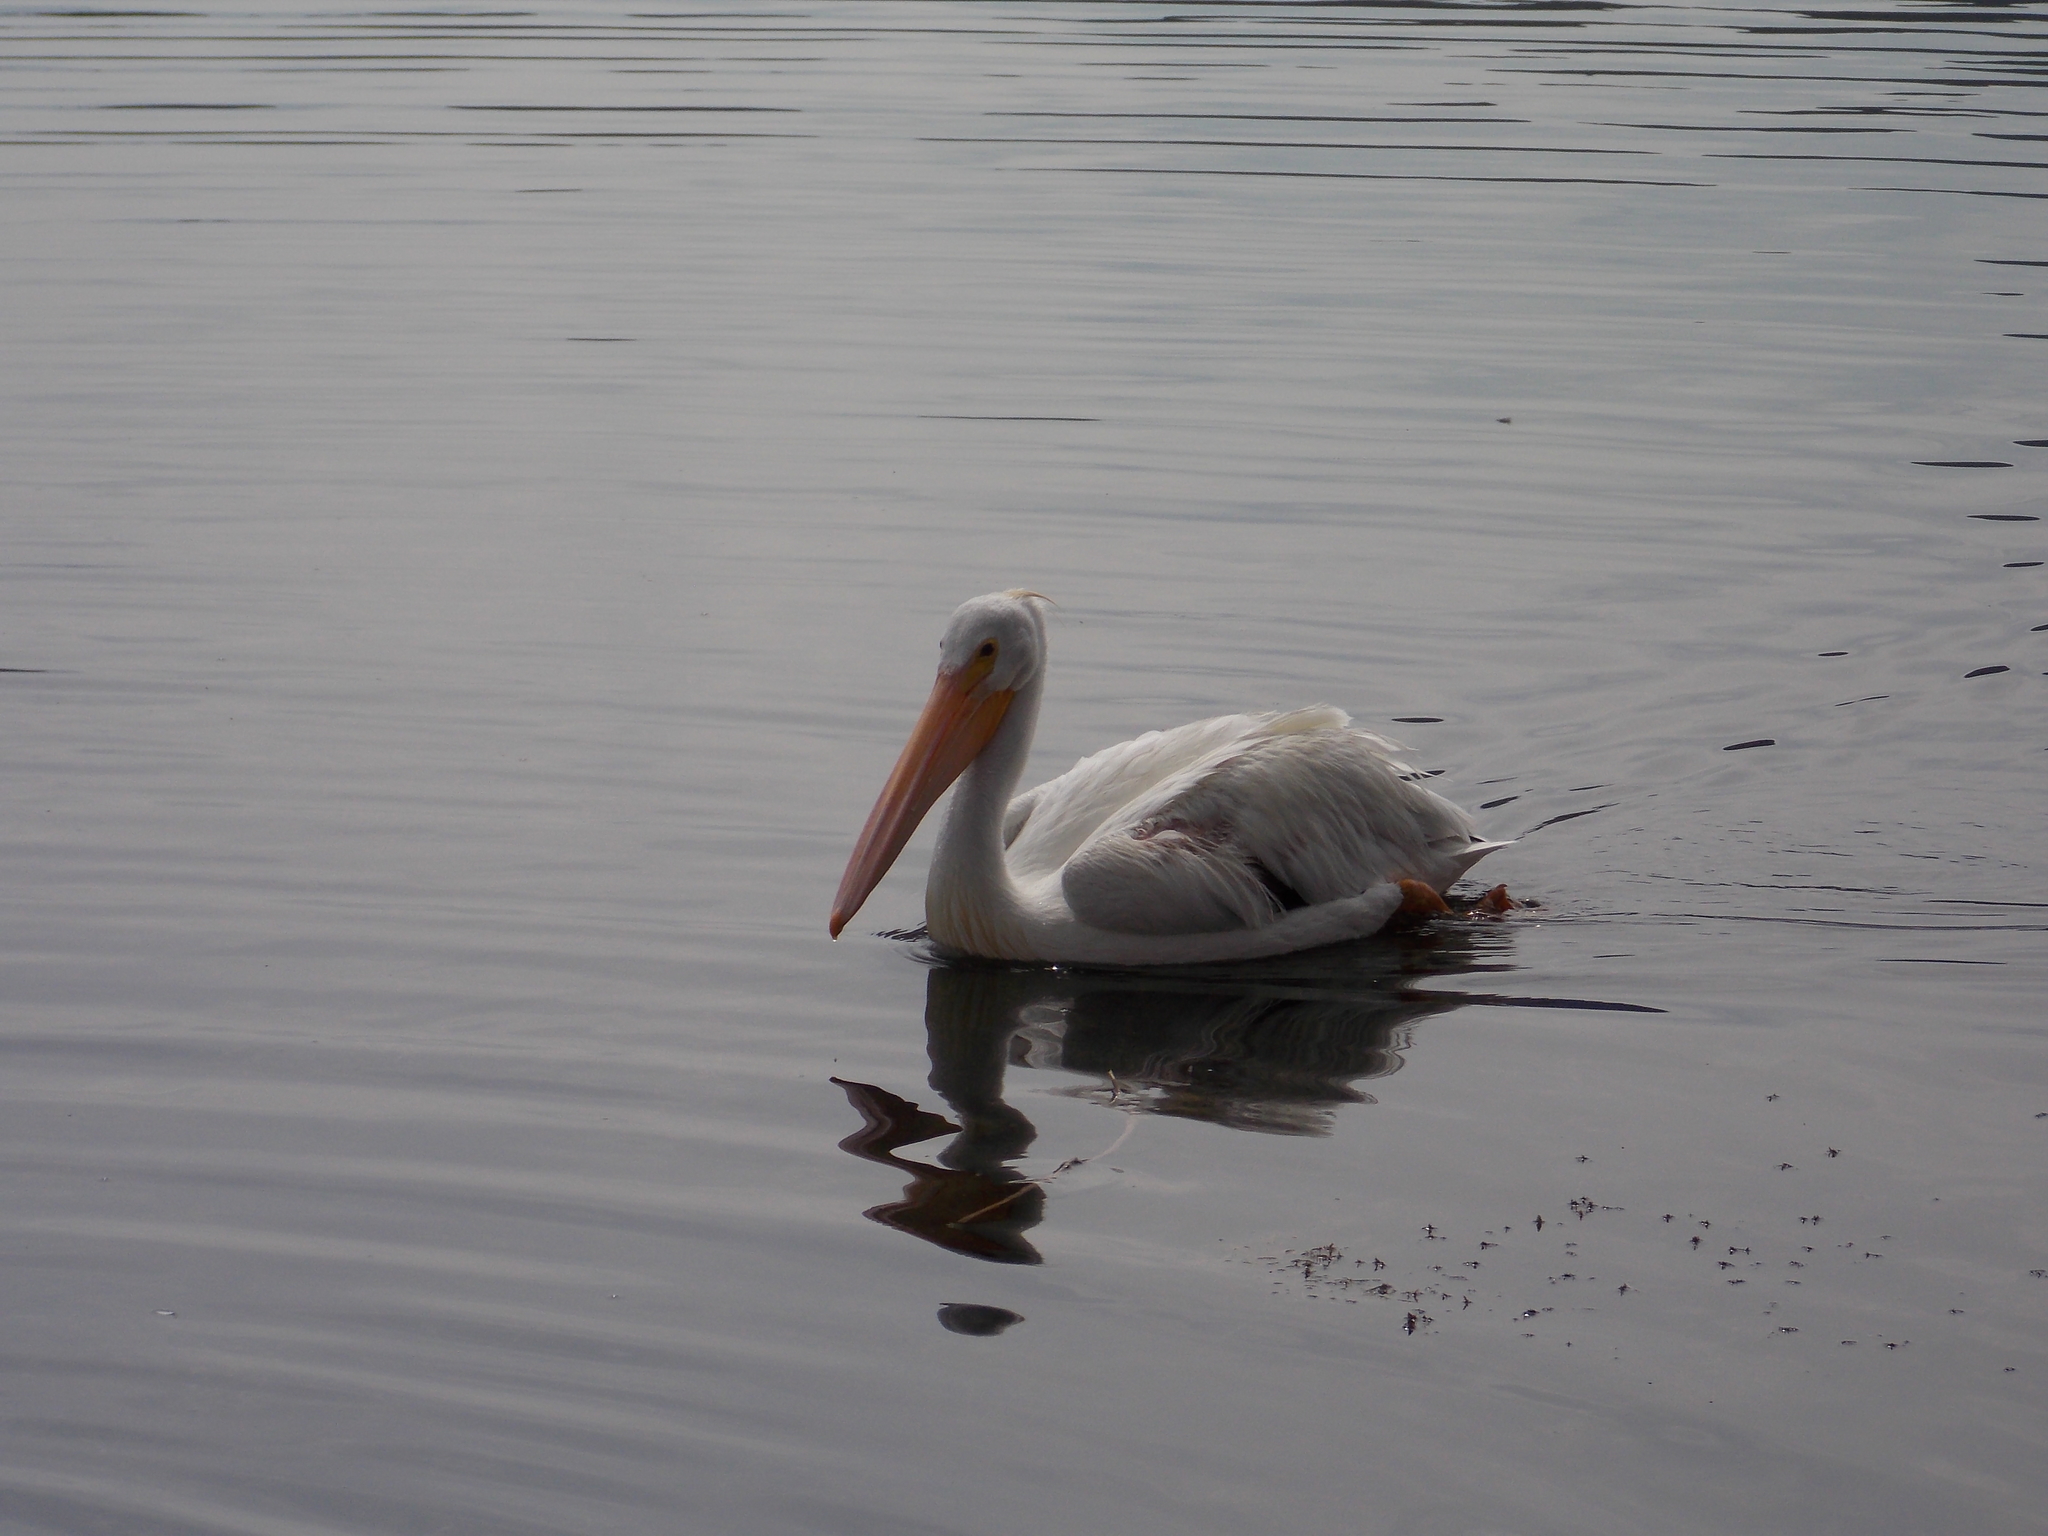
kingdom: Animalia
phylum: Chordata
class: Aves
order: Pelecaniformes
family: Pelecanidae
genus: Pelecanus
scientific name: Pelecanus erythrorhynchos
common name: American white pelican
